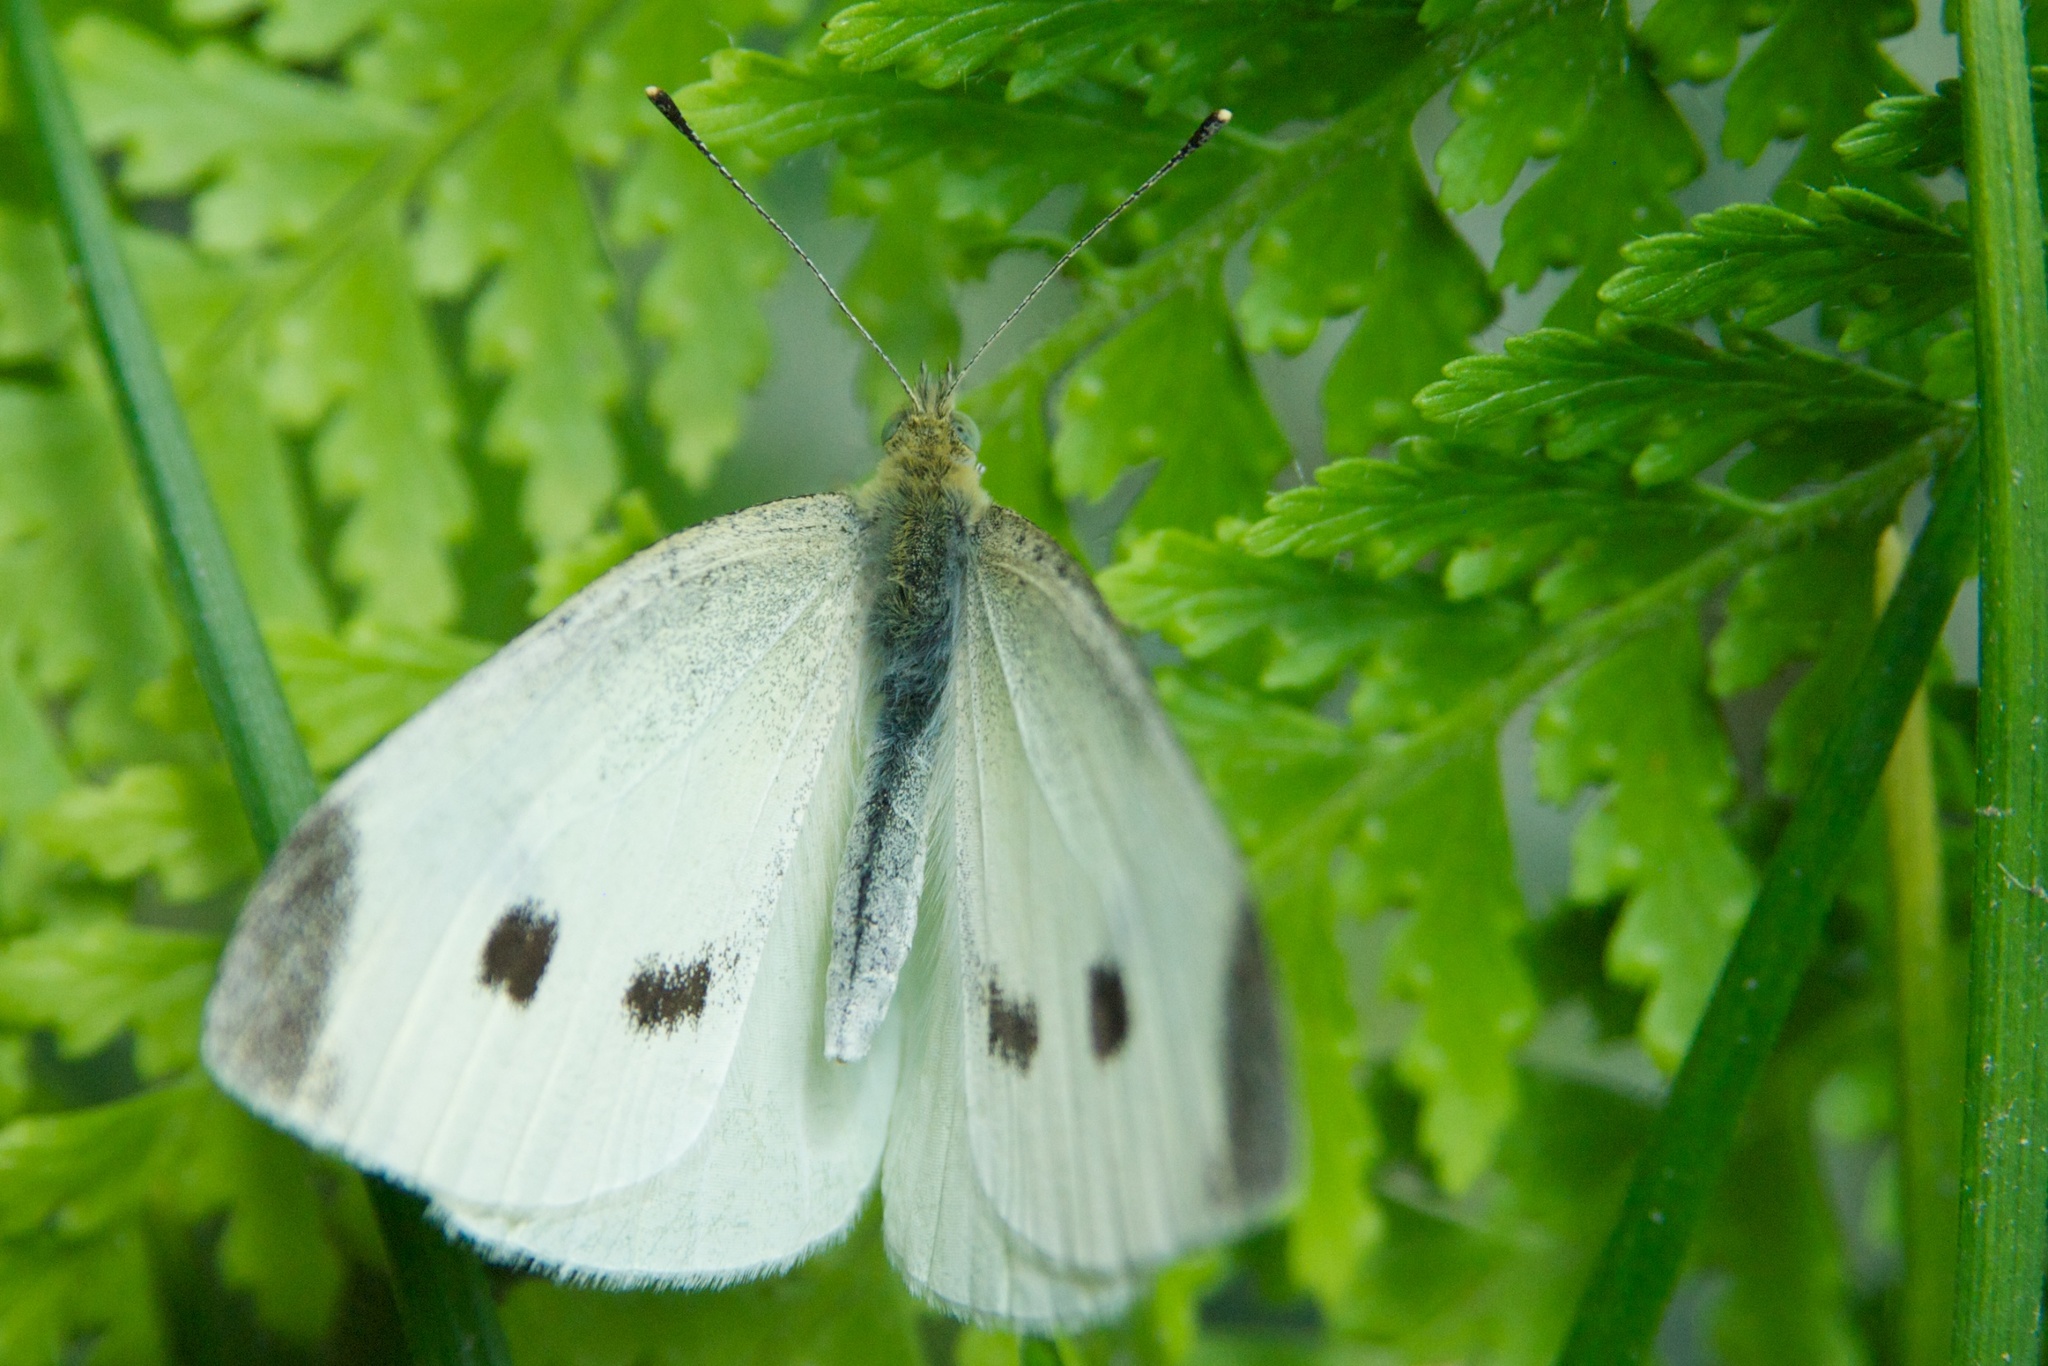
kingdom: Animalia
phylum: Arthropoda
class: Insecta
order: Lepidoptera
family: Pieridae
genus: Pieris
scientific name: Pieris rapae
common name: Small white
